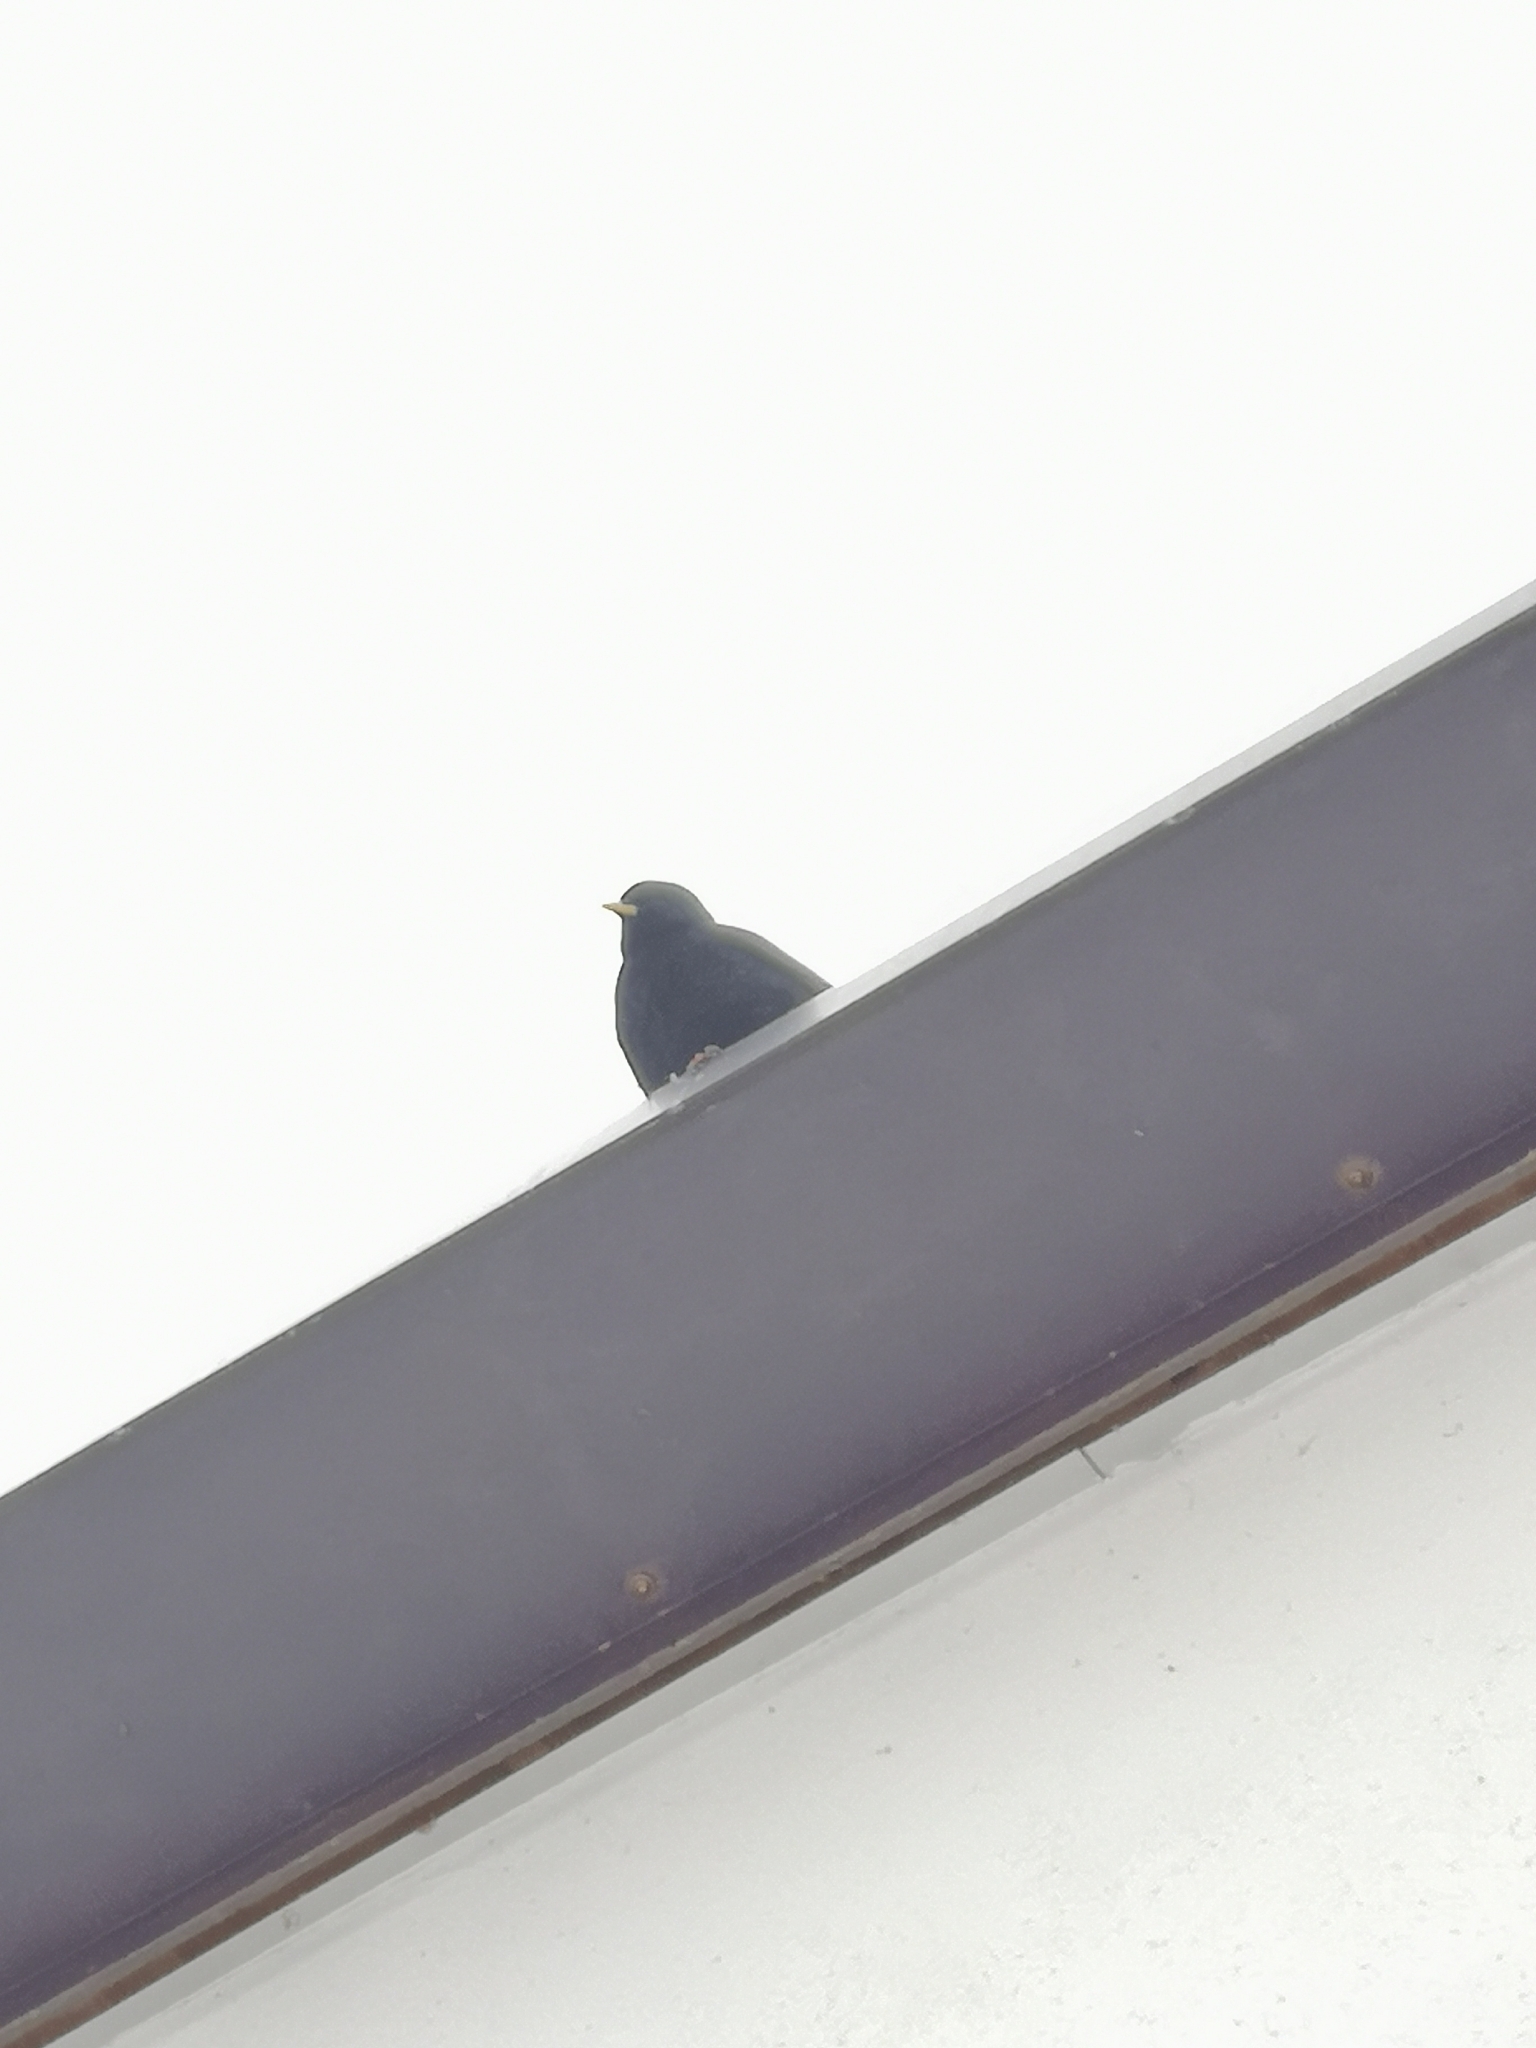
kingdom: Animalia
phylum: Chordata
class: Aves
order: Passeriformes
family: Corvidae
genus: Pyrrhocorax
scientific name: Pyrrhocorax graculus
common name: Alpine chough
